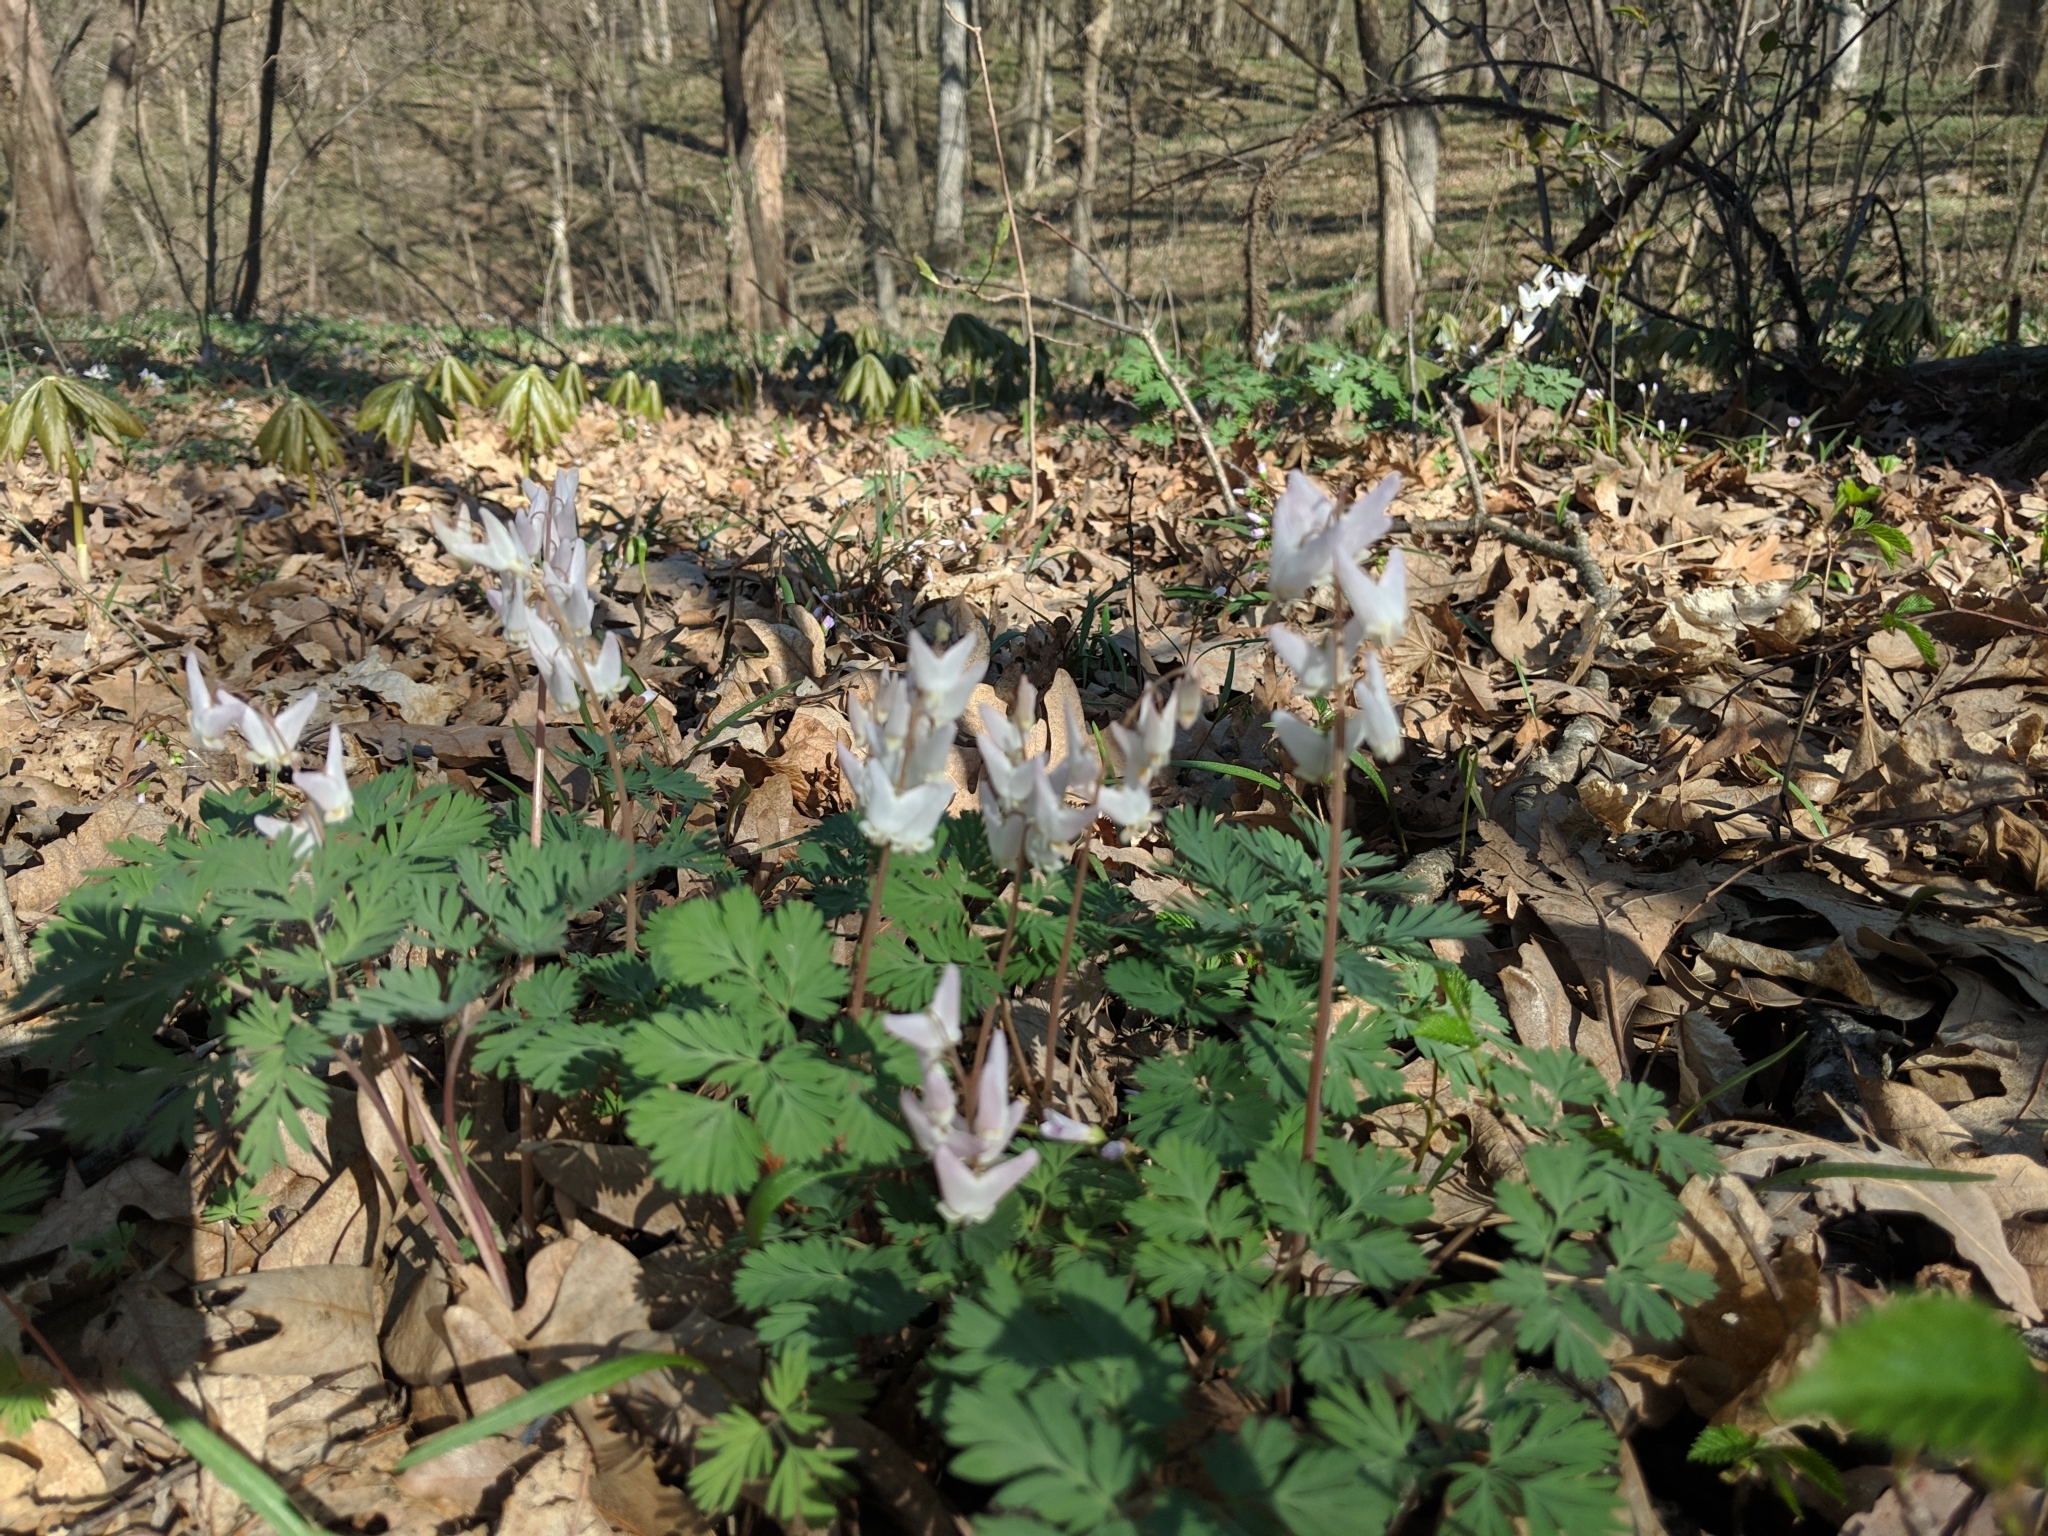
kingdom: Plantae
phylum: Tracheophyta
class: Magnoliopsida
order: Ranunculales
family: Papaveraceae
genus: Dicentra
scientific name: Dicentra cucullaria
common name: Dutchman's breeches
